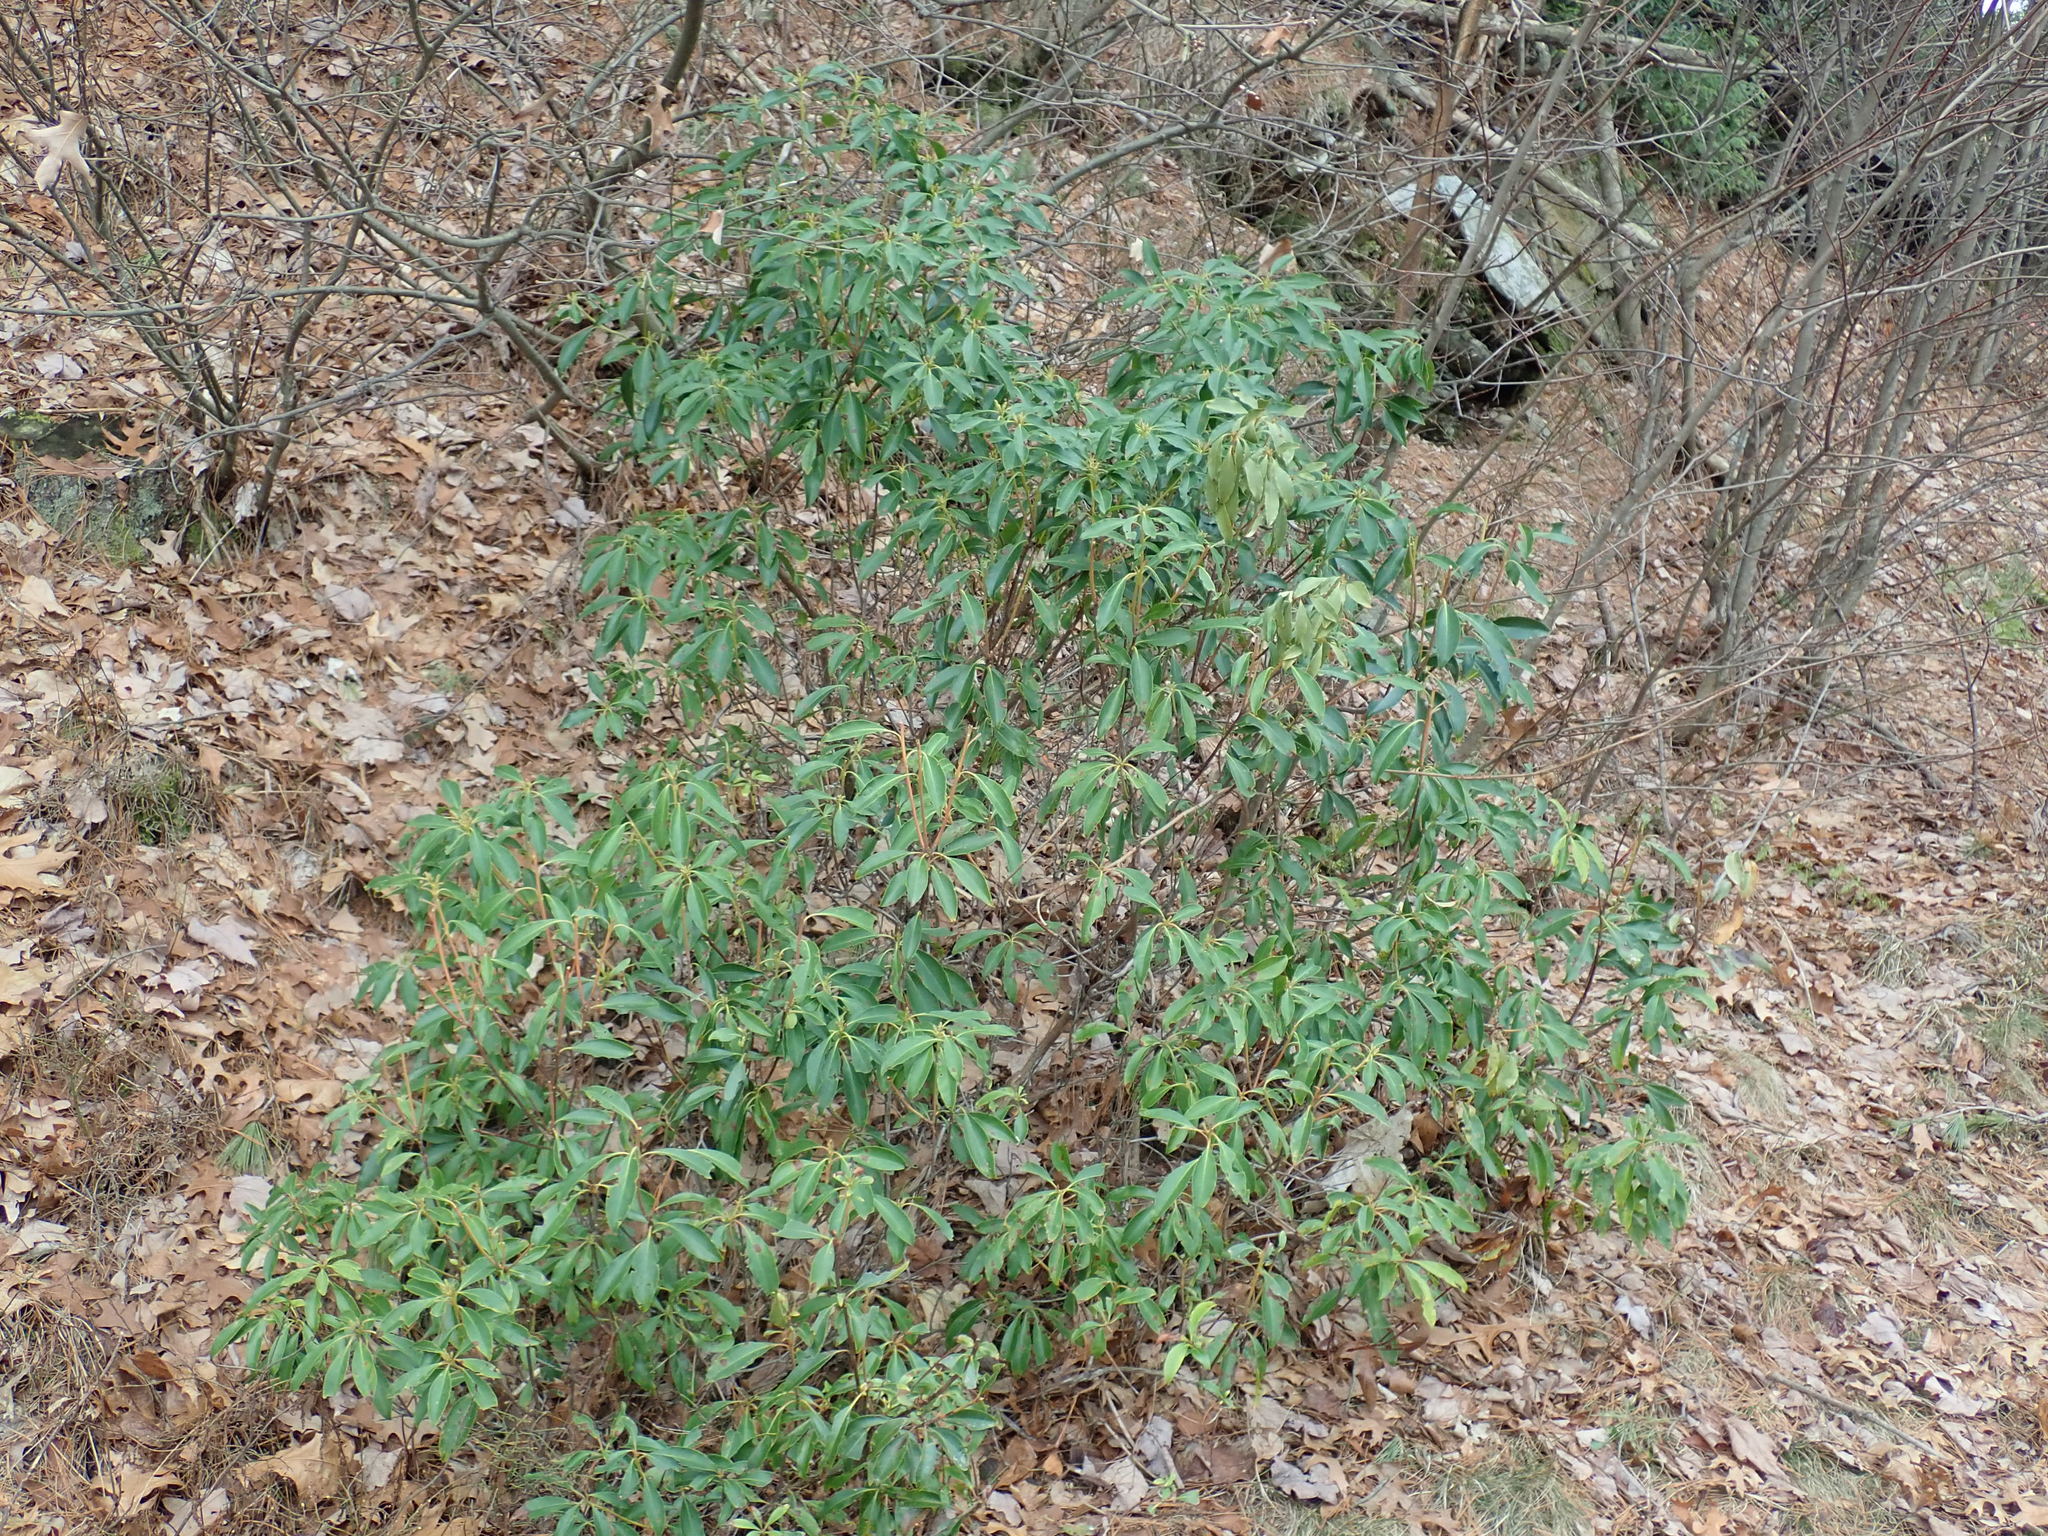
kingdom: Plantae
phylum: Tracheophyta
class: Magnoliopsida
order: Ericales
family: Ericaceae
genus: Kalmia
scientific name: Kalmia latifolia
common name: Mountain-laurel
